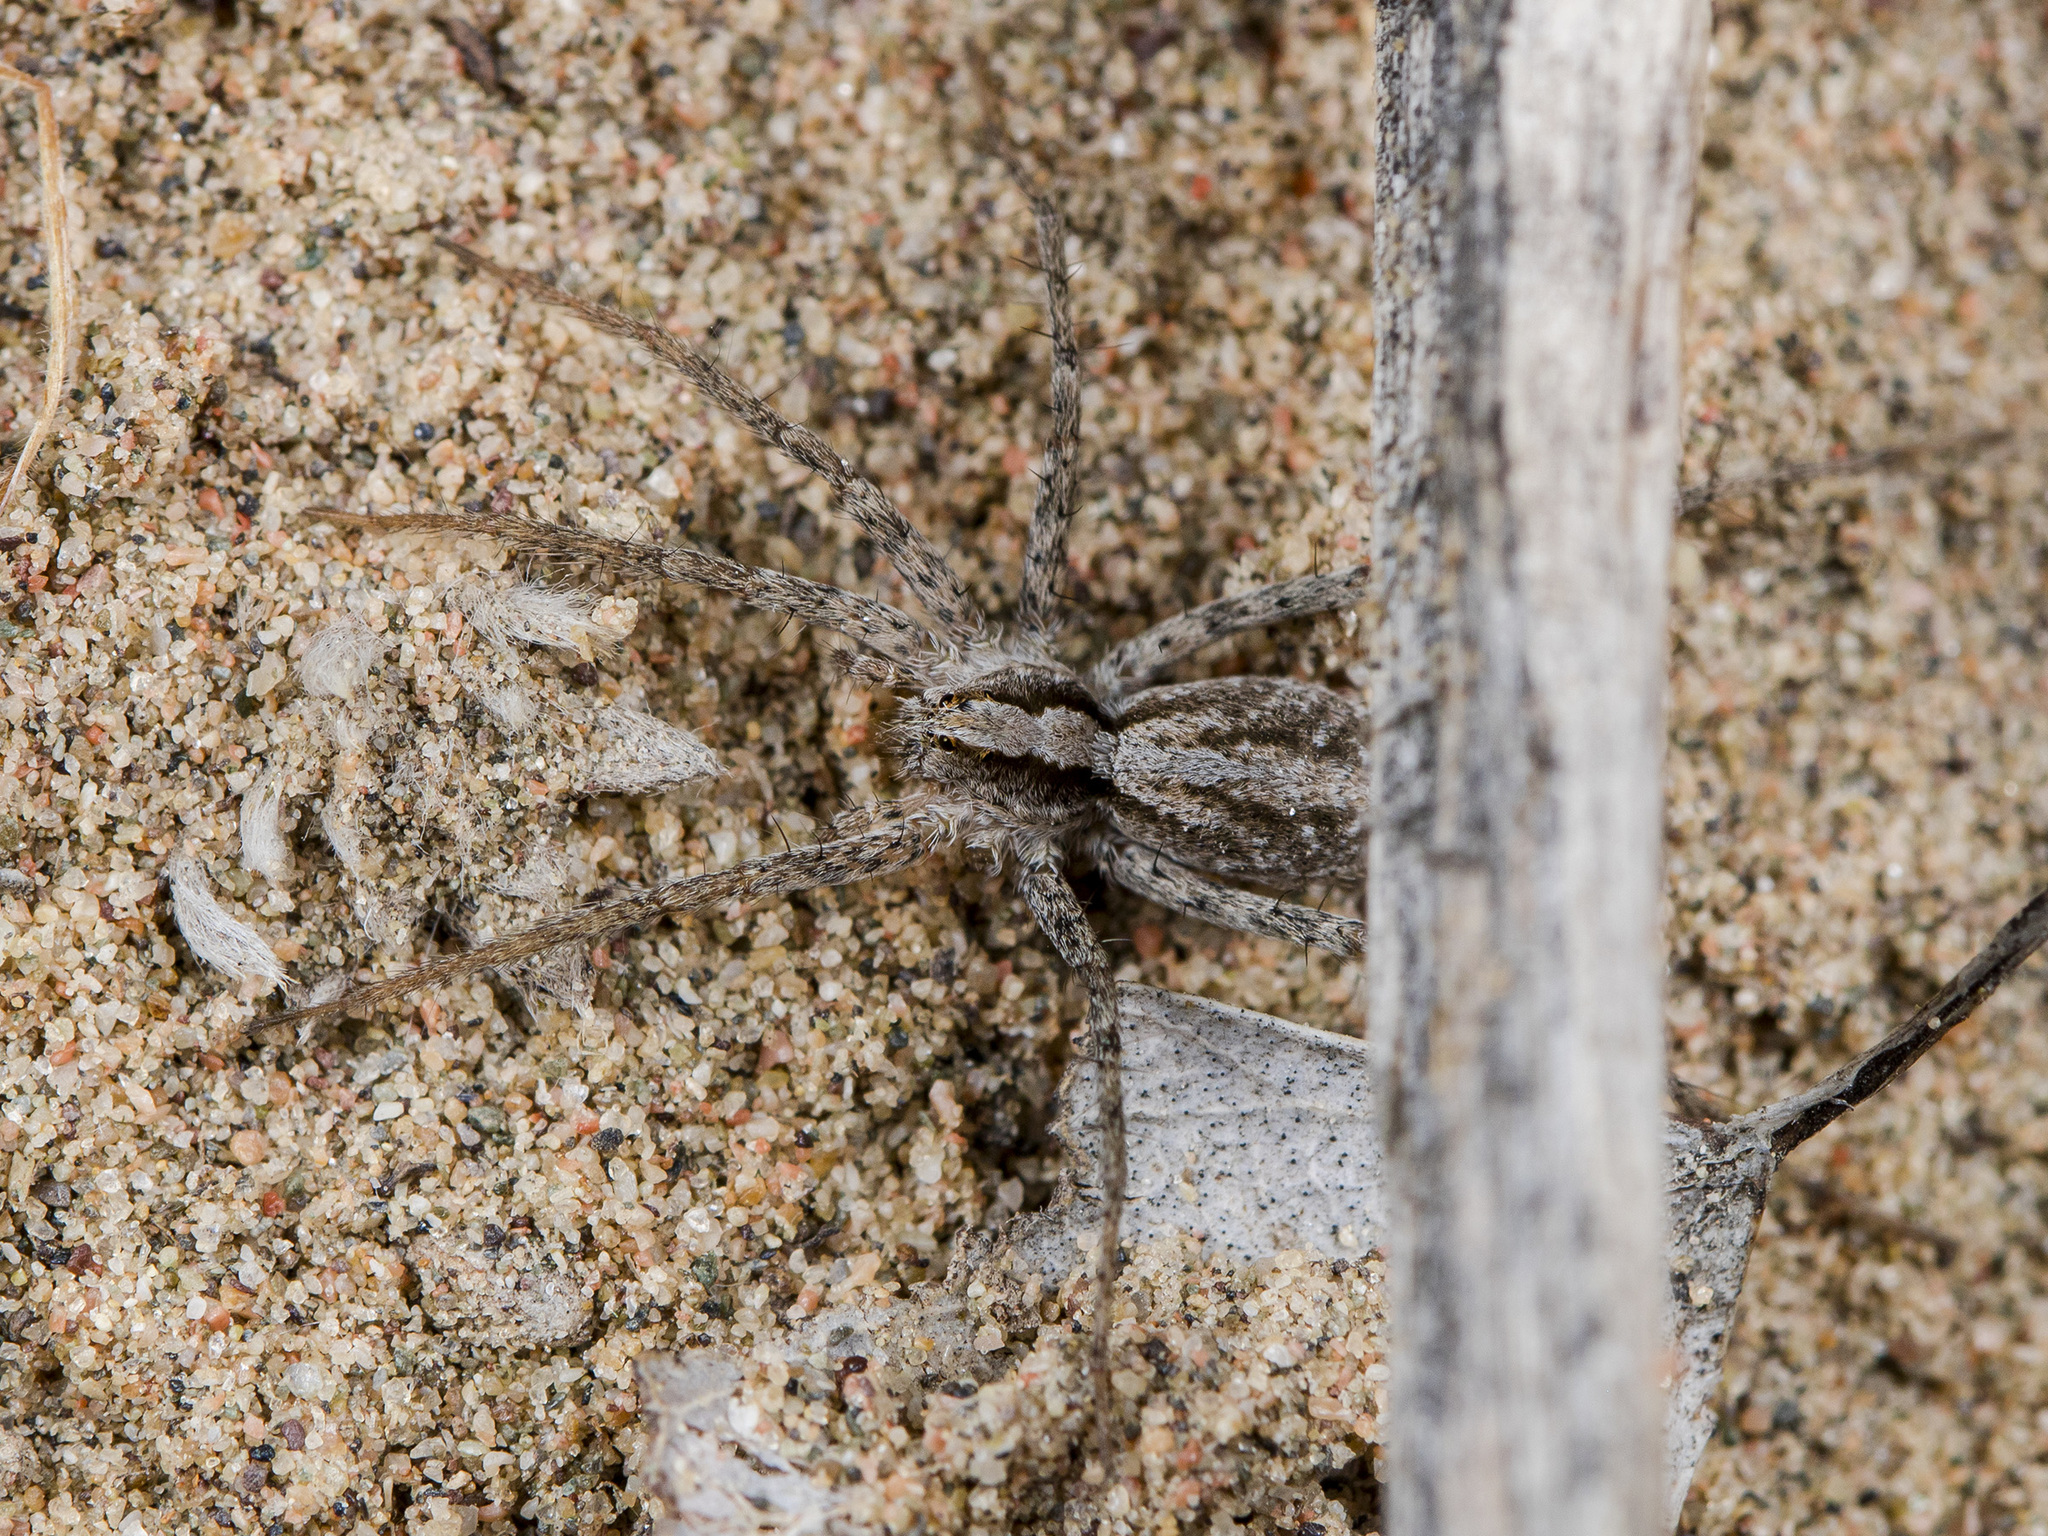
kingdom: Animalia
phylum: Arthropoda
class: Arachnida
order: Araneae
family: Lycosidae
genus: Evippa
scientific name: Evippa beschkentica
